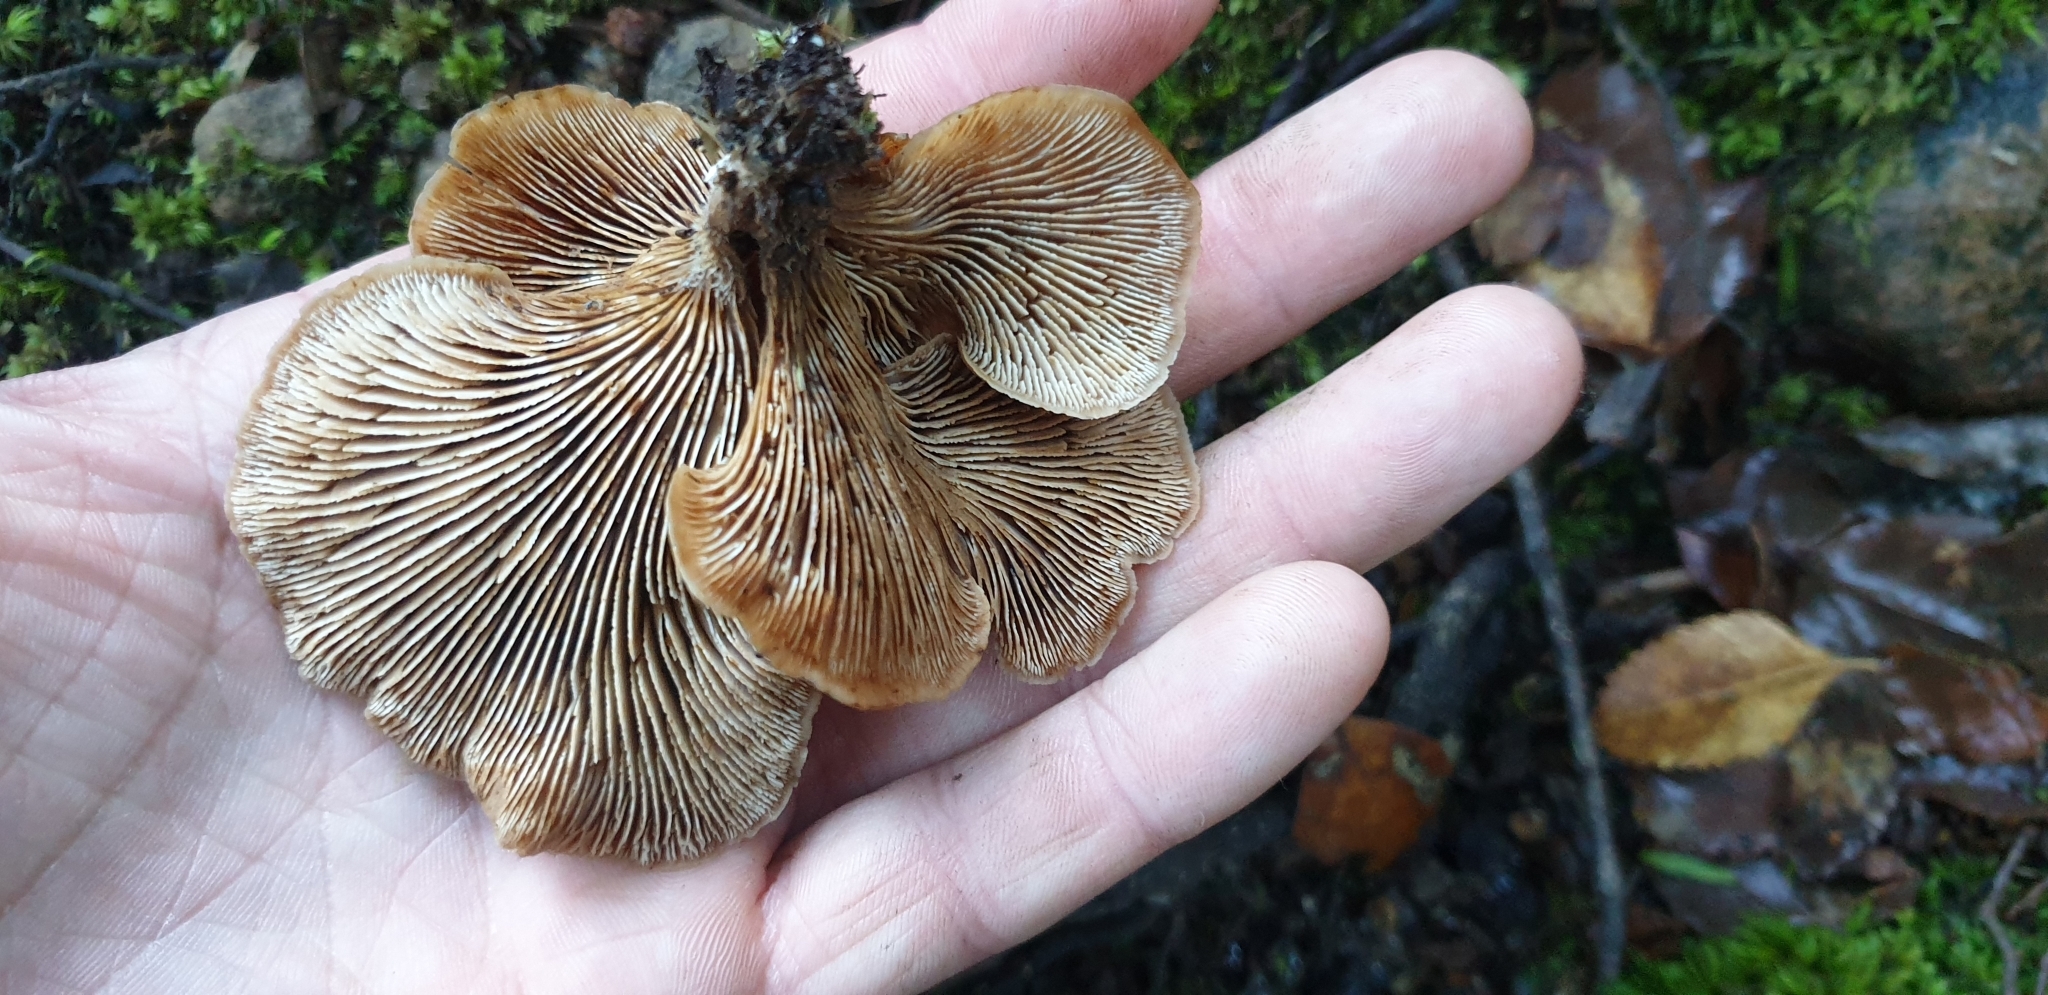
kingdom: Fungi
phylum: Basidiomycota
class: Agaricomycetes
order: Russulales
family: Auriscalpiaceae
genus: Lentinellus
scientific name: Lentinellus crawfordiae
